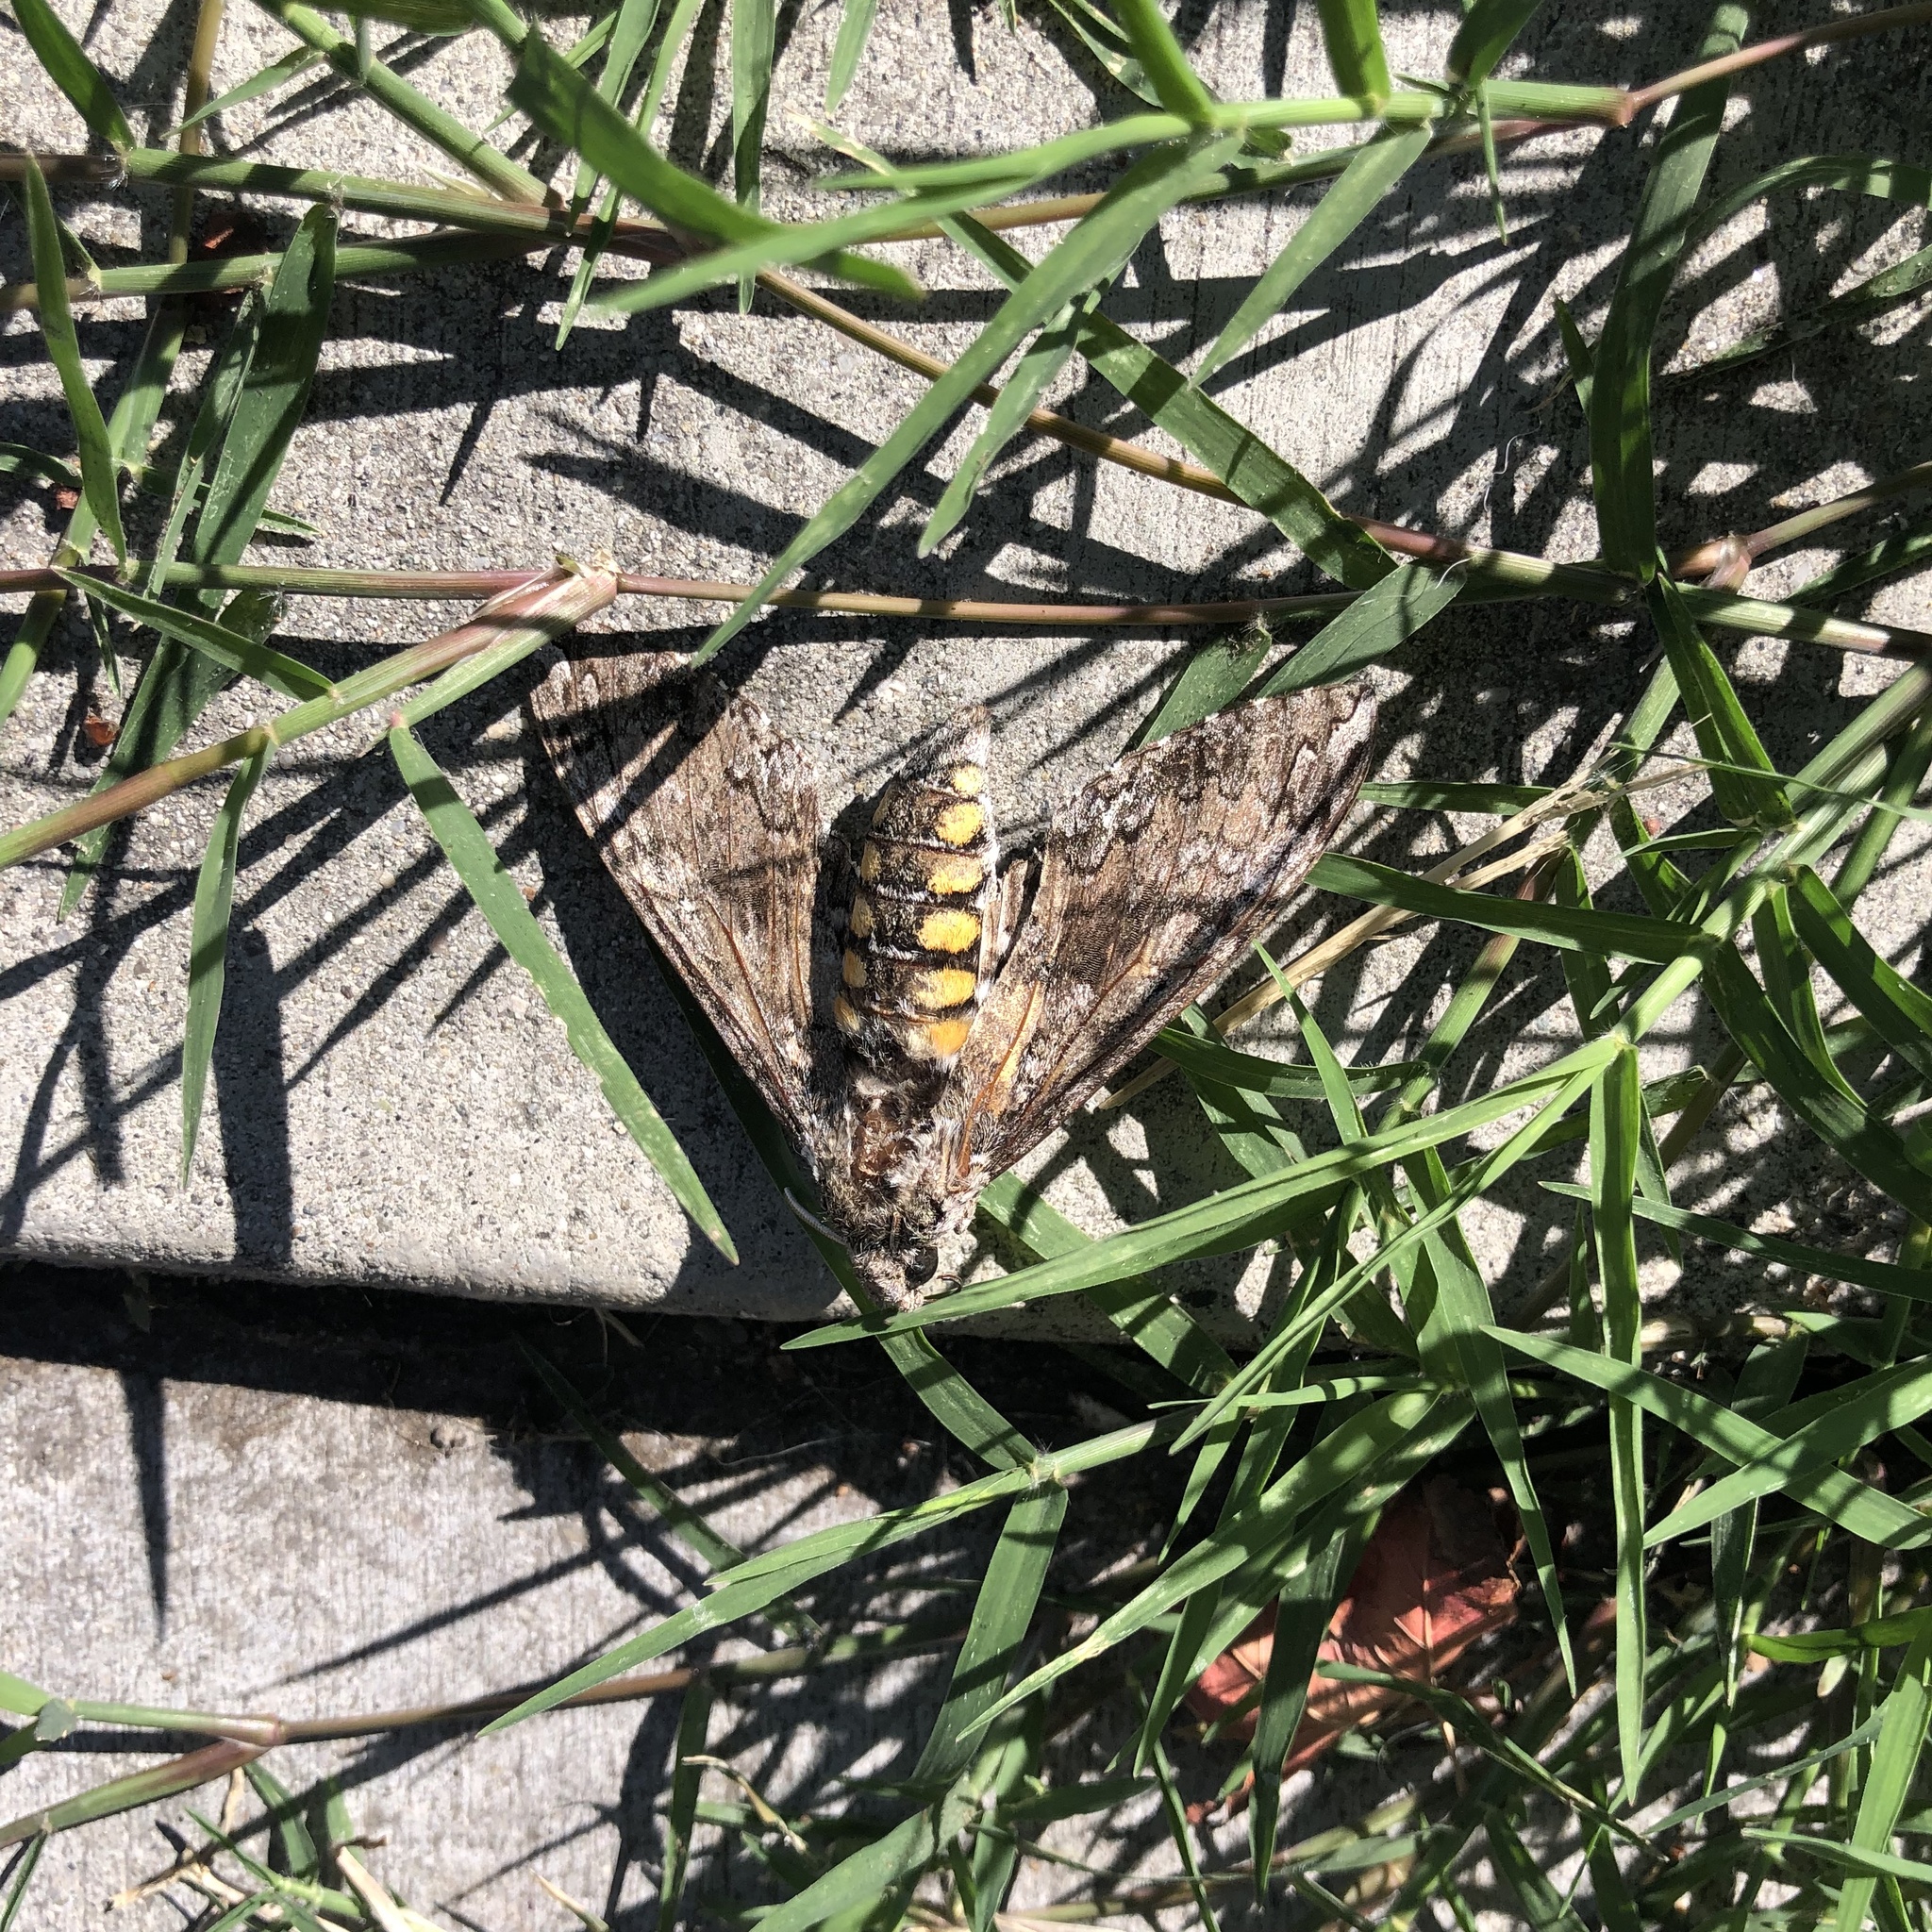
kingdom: Animalia
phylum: Arthropoda
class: Insecta
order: Lepidoptera
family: Sphingidae
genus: Manduca
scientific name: Manduca sexta
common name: Carolina sphinx
